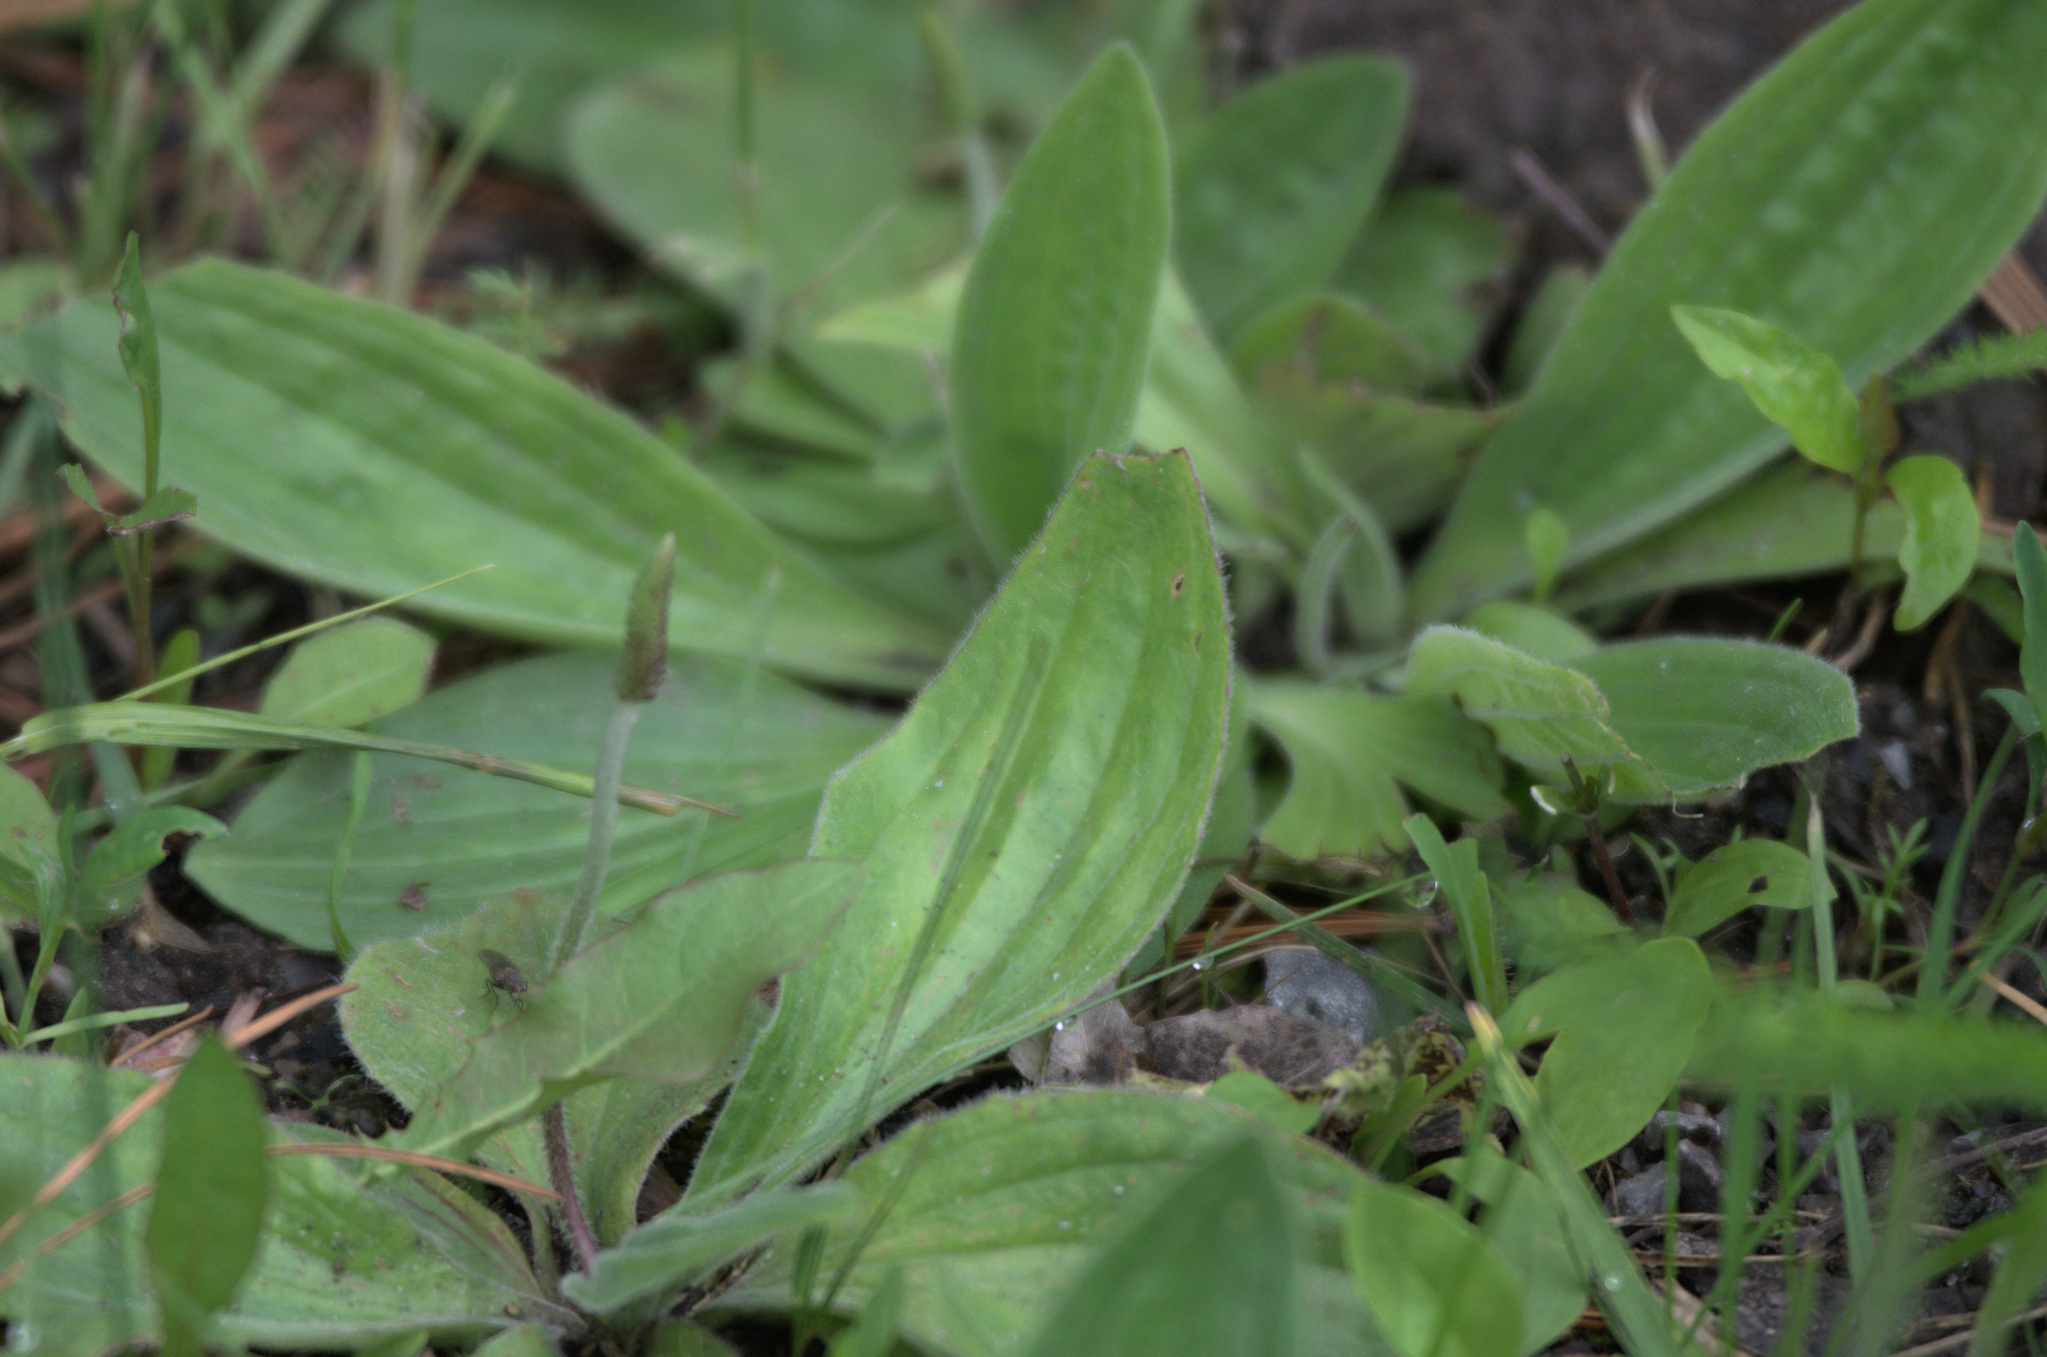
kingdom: Plantae
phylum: Tracheophyta
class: Magnoliopsida
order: Lamiales
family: Plantaginaceae
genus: Plantago
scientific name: Plantago media
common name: Hoary plantain
